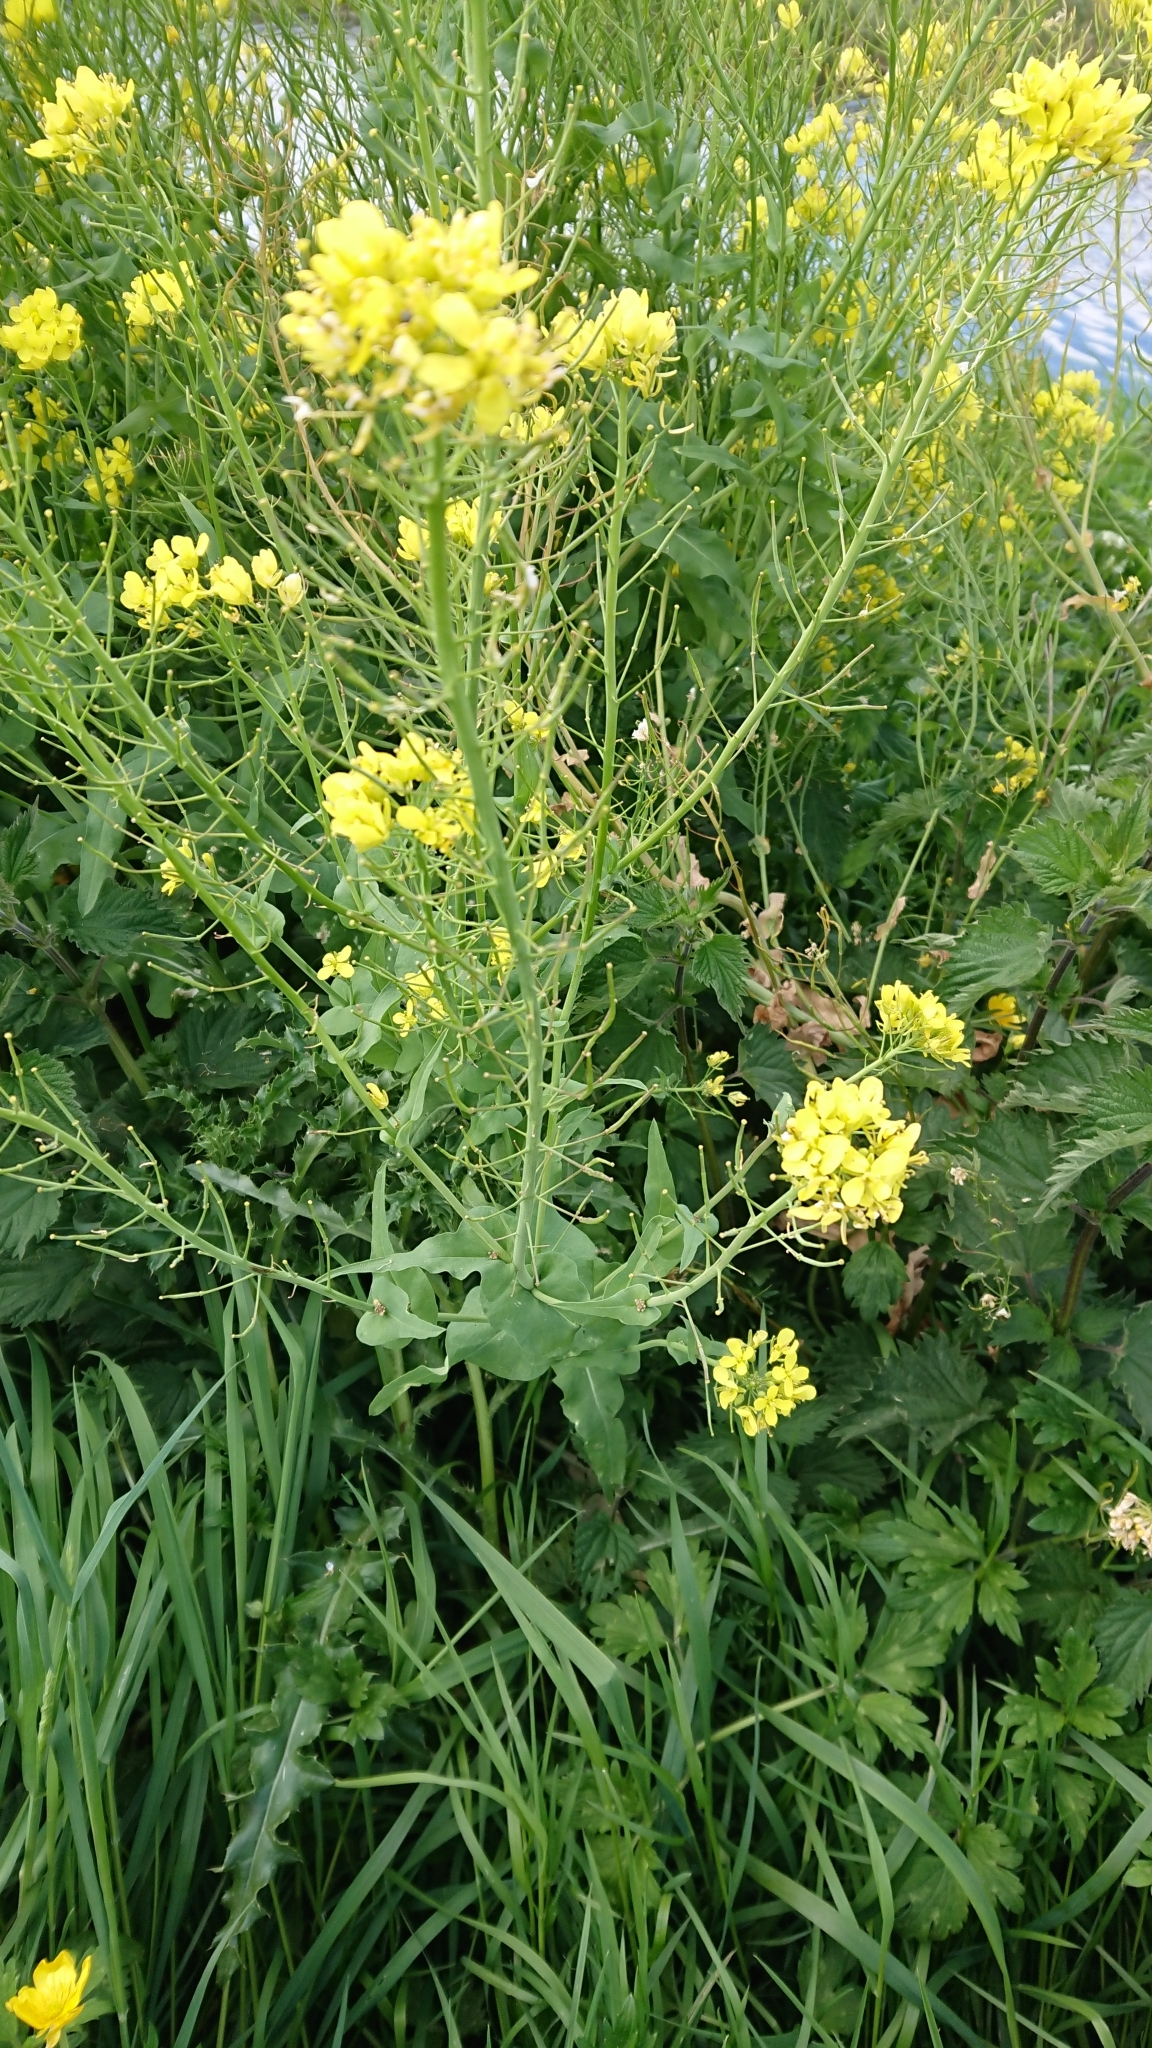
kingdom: Plantae
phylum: Tracheophyta
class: Magnoliopsida
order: Brassicales
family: Brassicaceae
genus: Brassica
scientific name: Brassica rapa
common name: Field mustard
